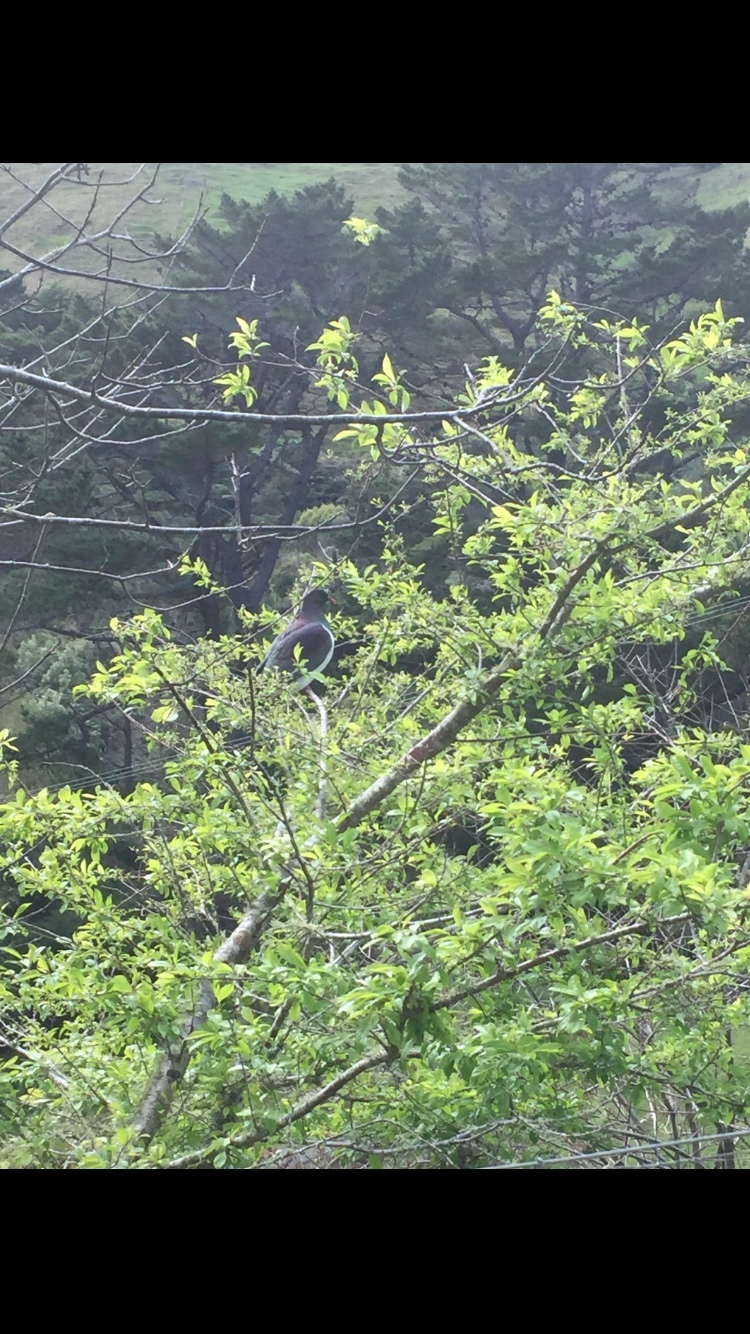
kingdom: Animalia
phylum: Chordata
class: Aves
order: Columbiformes
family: Columbidae
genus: Hemiphaga
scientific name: Hemiphaga novaeseelandiae
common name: New zealand pigeon
